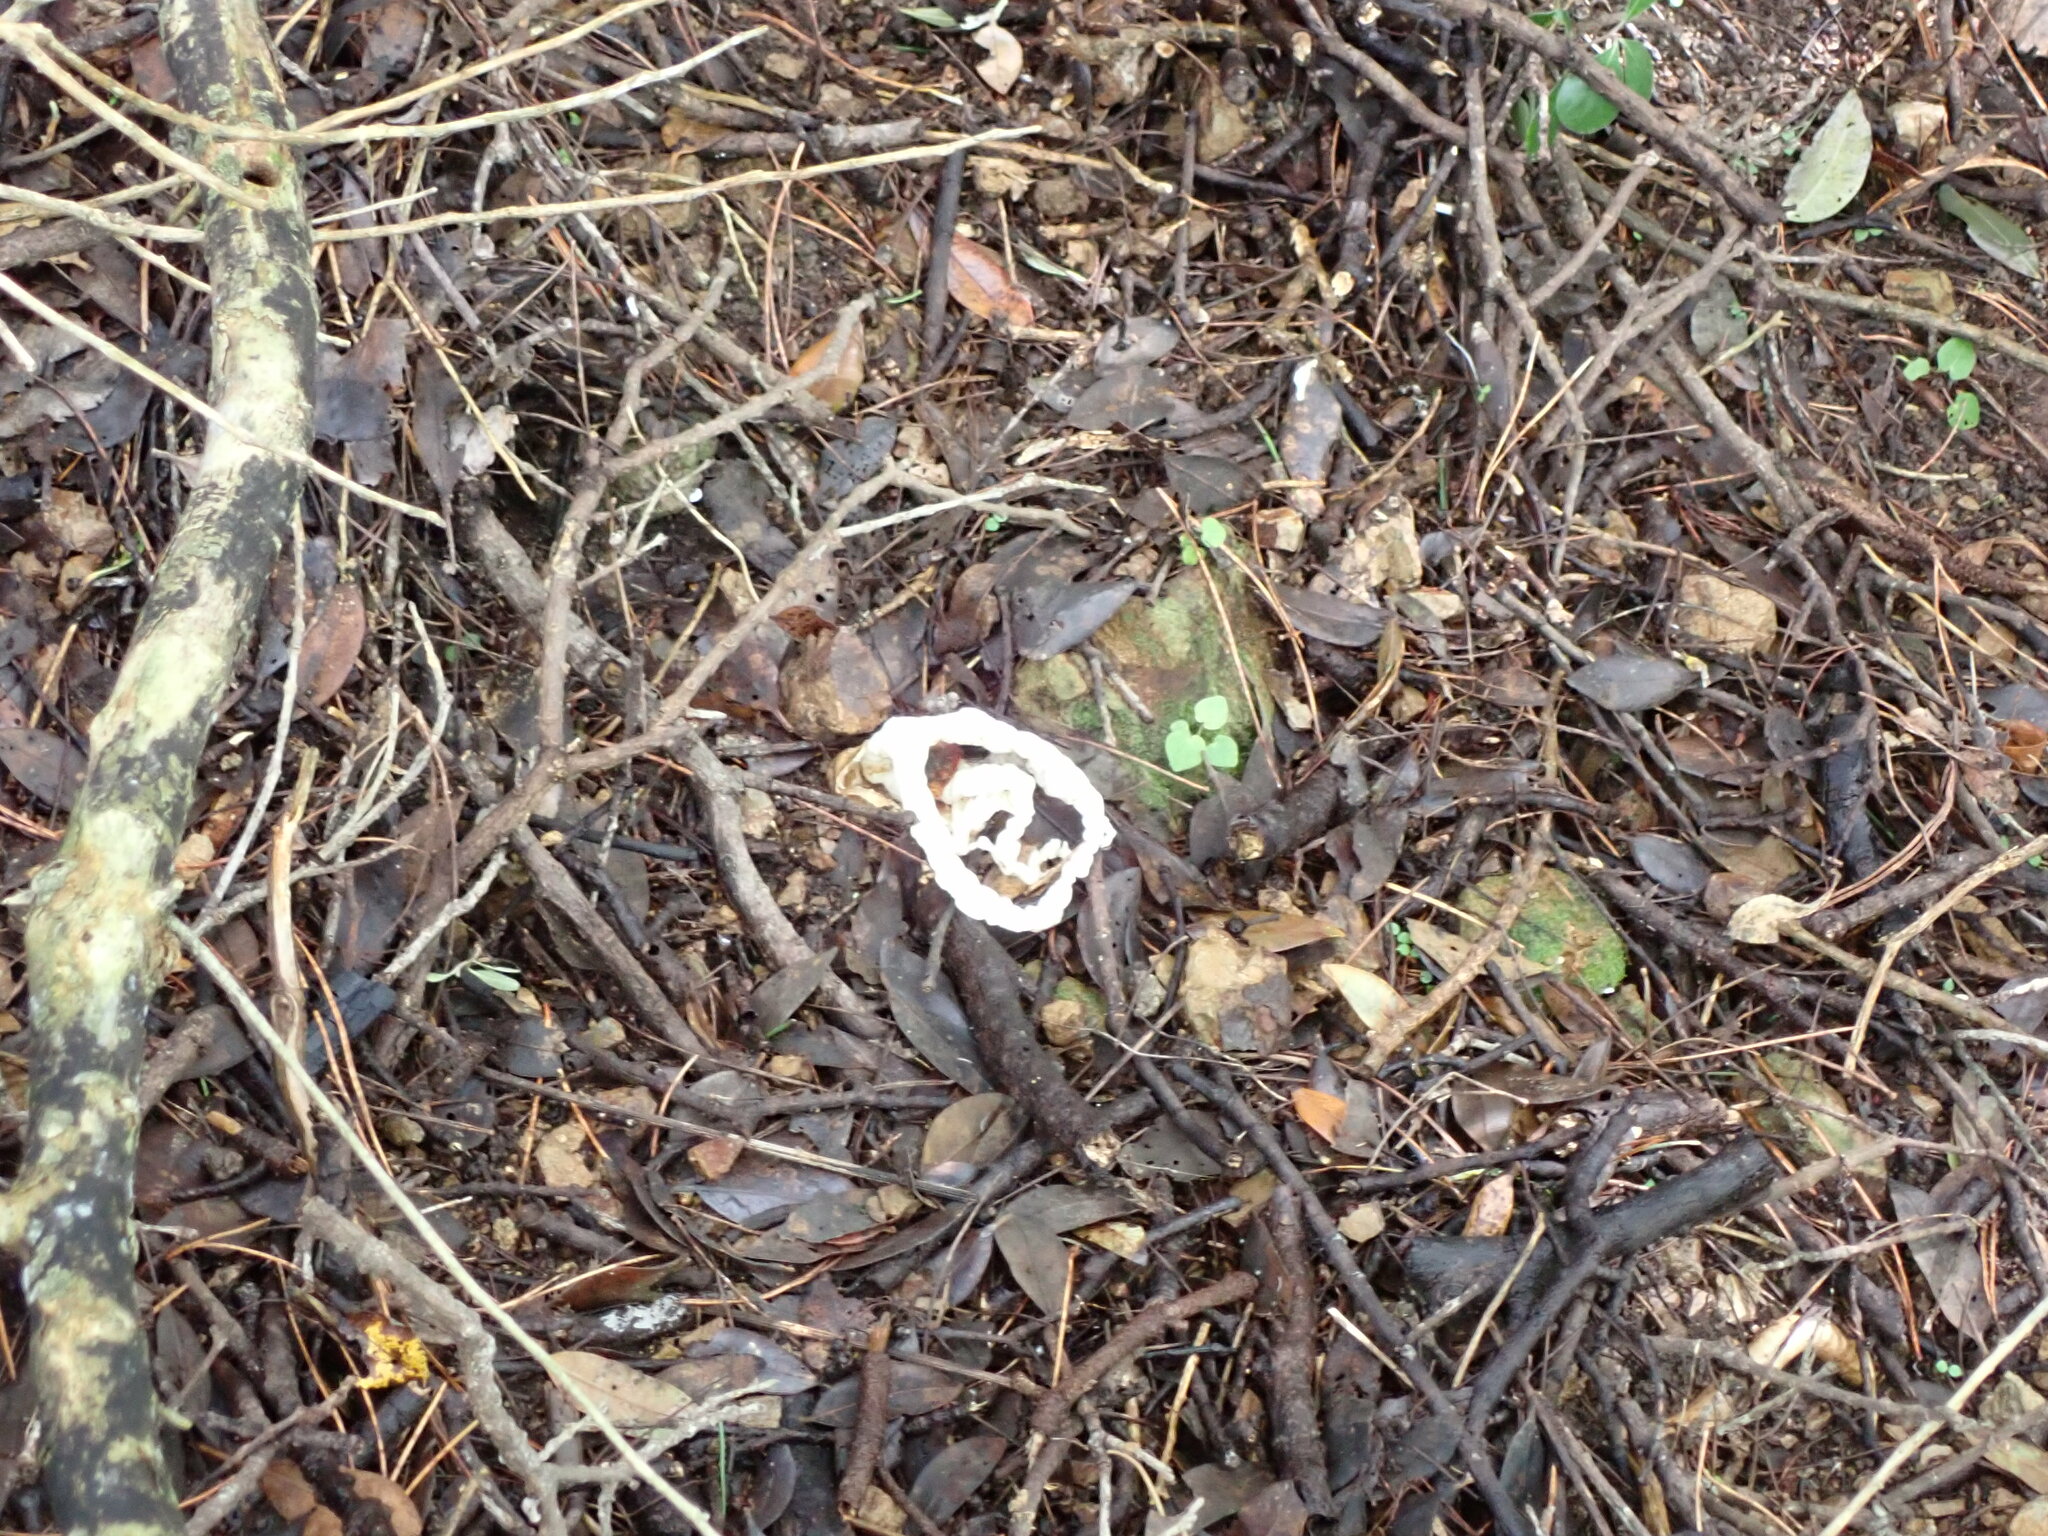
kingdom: Fungi
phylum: Basidiomycota
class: Agaricomycetes
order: Phallales
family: Phallaceae
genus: Ileodictyon
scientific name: Ileodictyon cibarium
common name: Basket fungus
